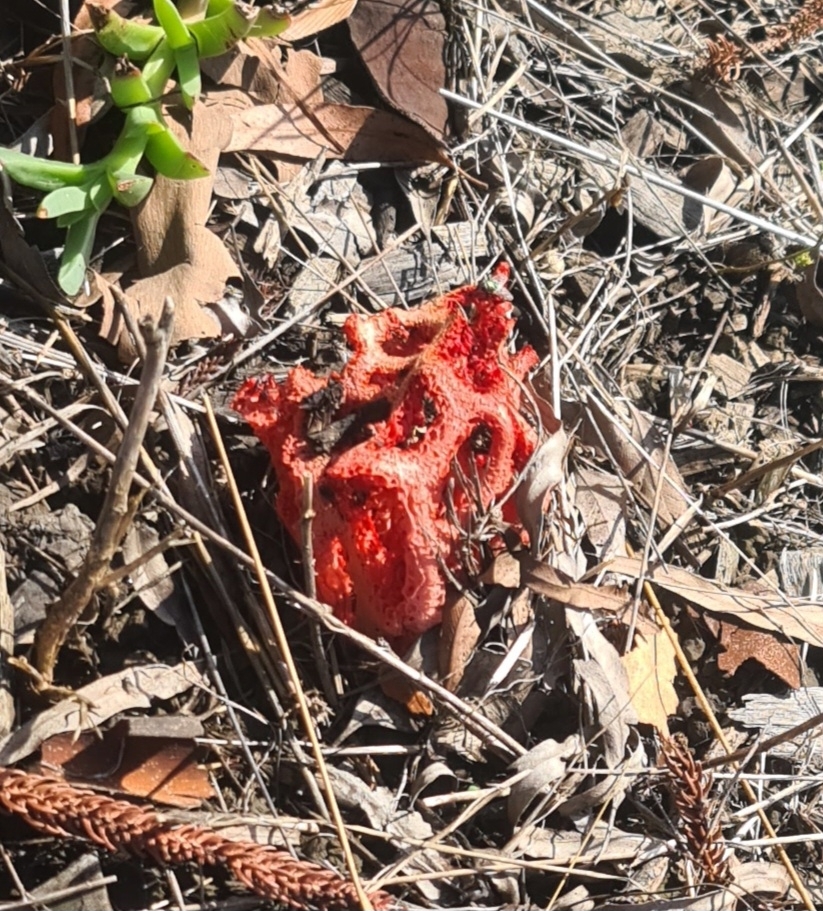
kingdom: Fungi
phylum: Basidiomycota
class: Agaricomycetes
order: Phallales
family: Phallaceae
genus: Clathrus
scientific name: Clathrus ruber
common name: Red cage
